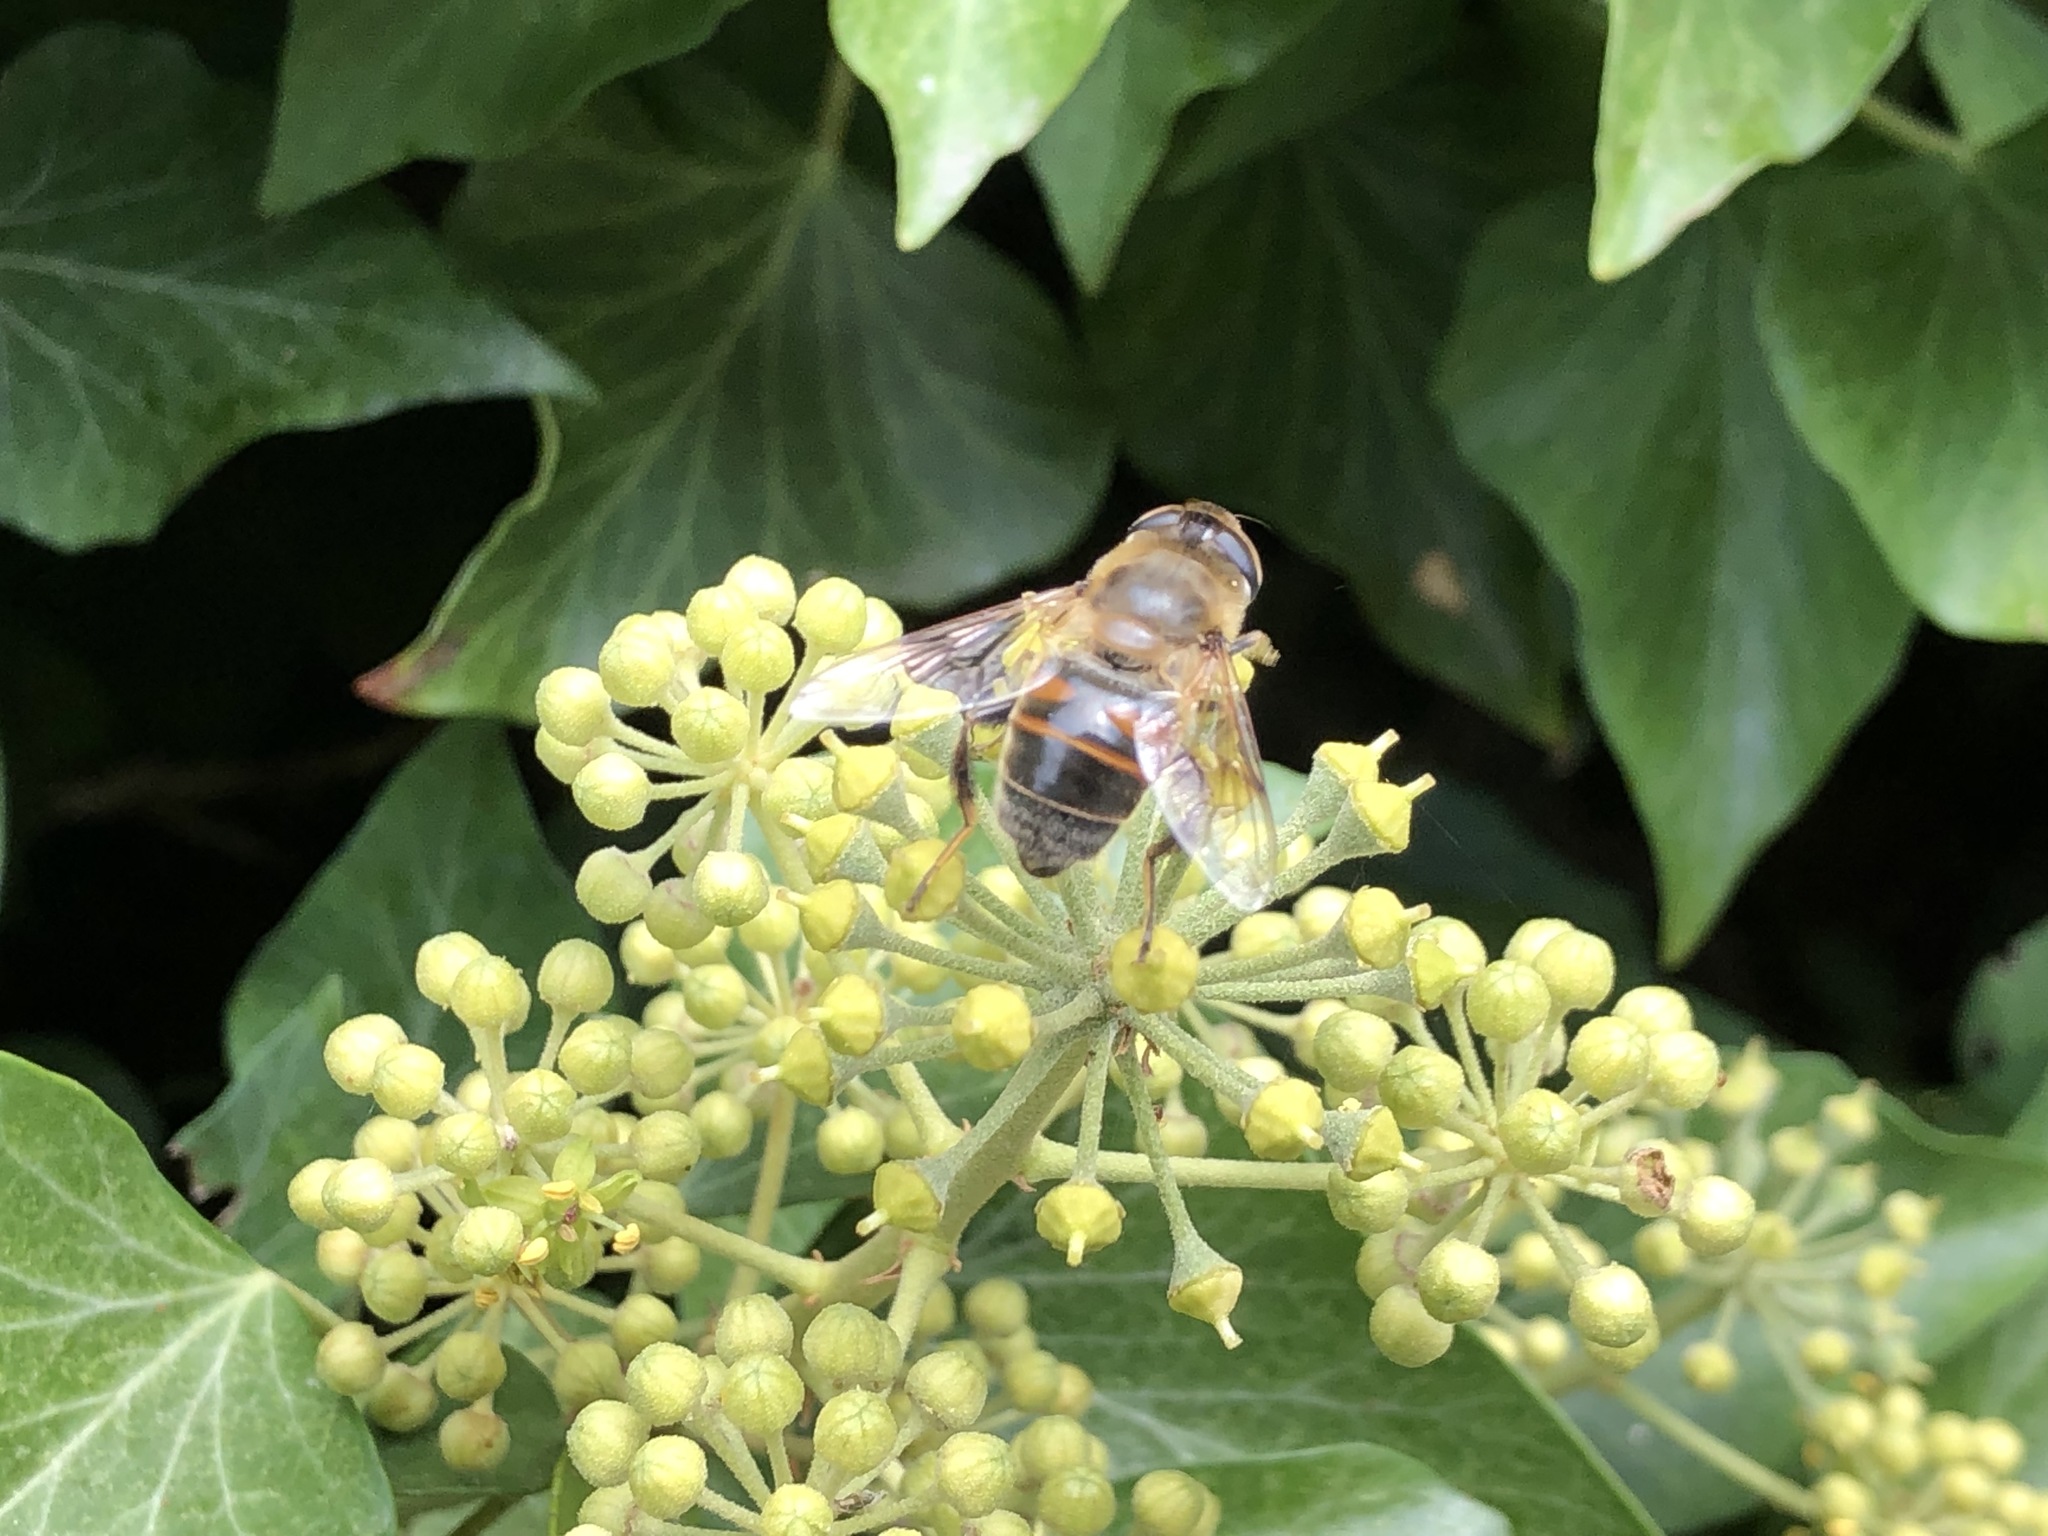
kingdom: Animalia
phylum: Arthropoda
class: Insecta
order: Diptera
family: Syrphidae
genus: Eristalis
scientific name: Eristalis tenax
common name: Drone fly
